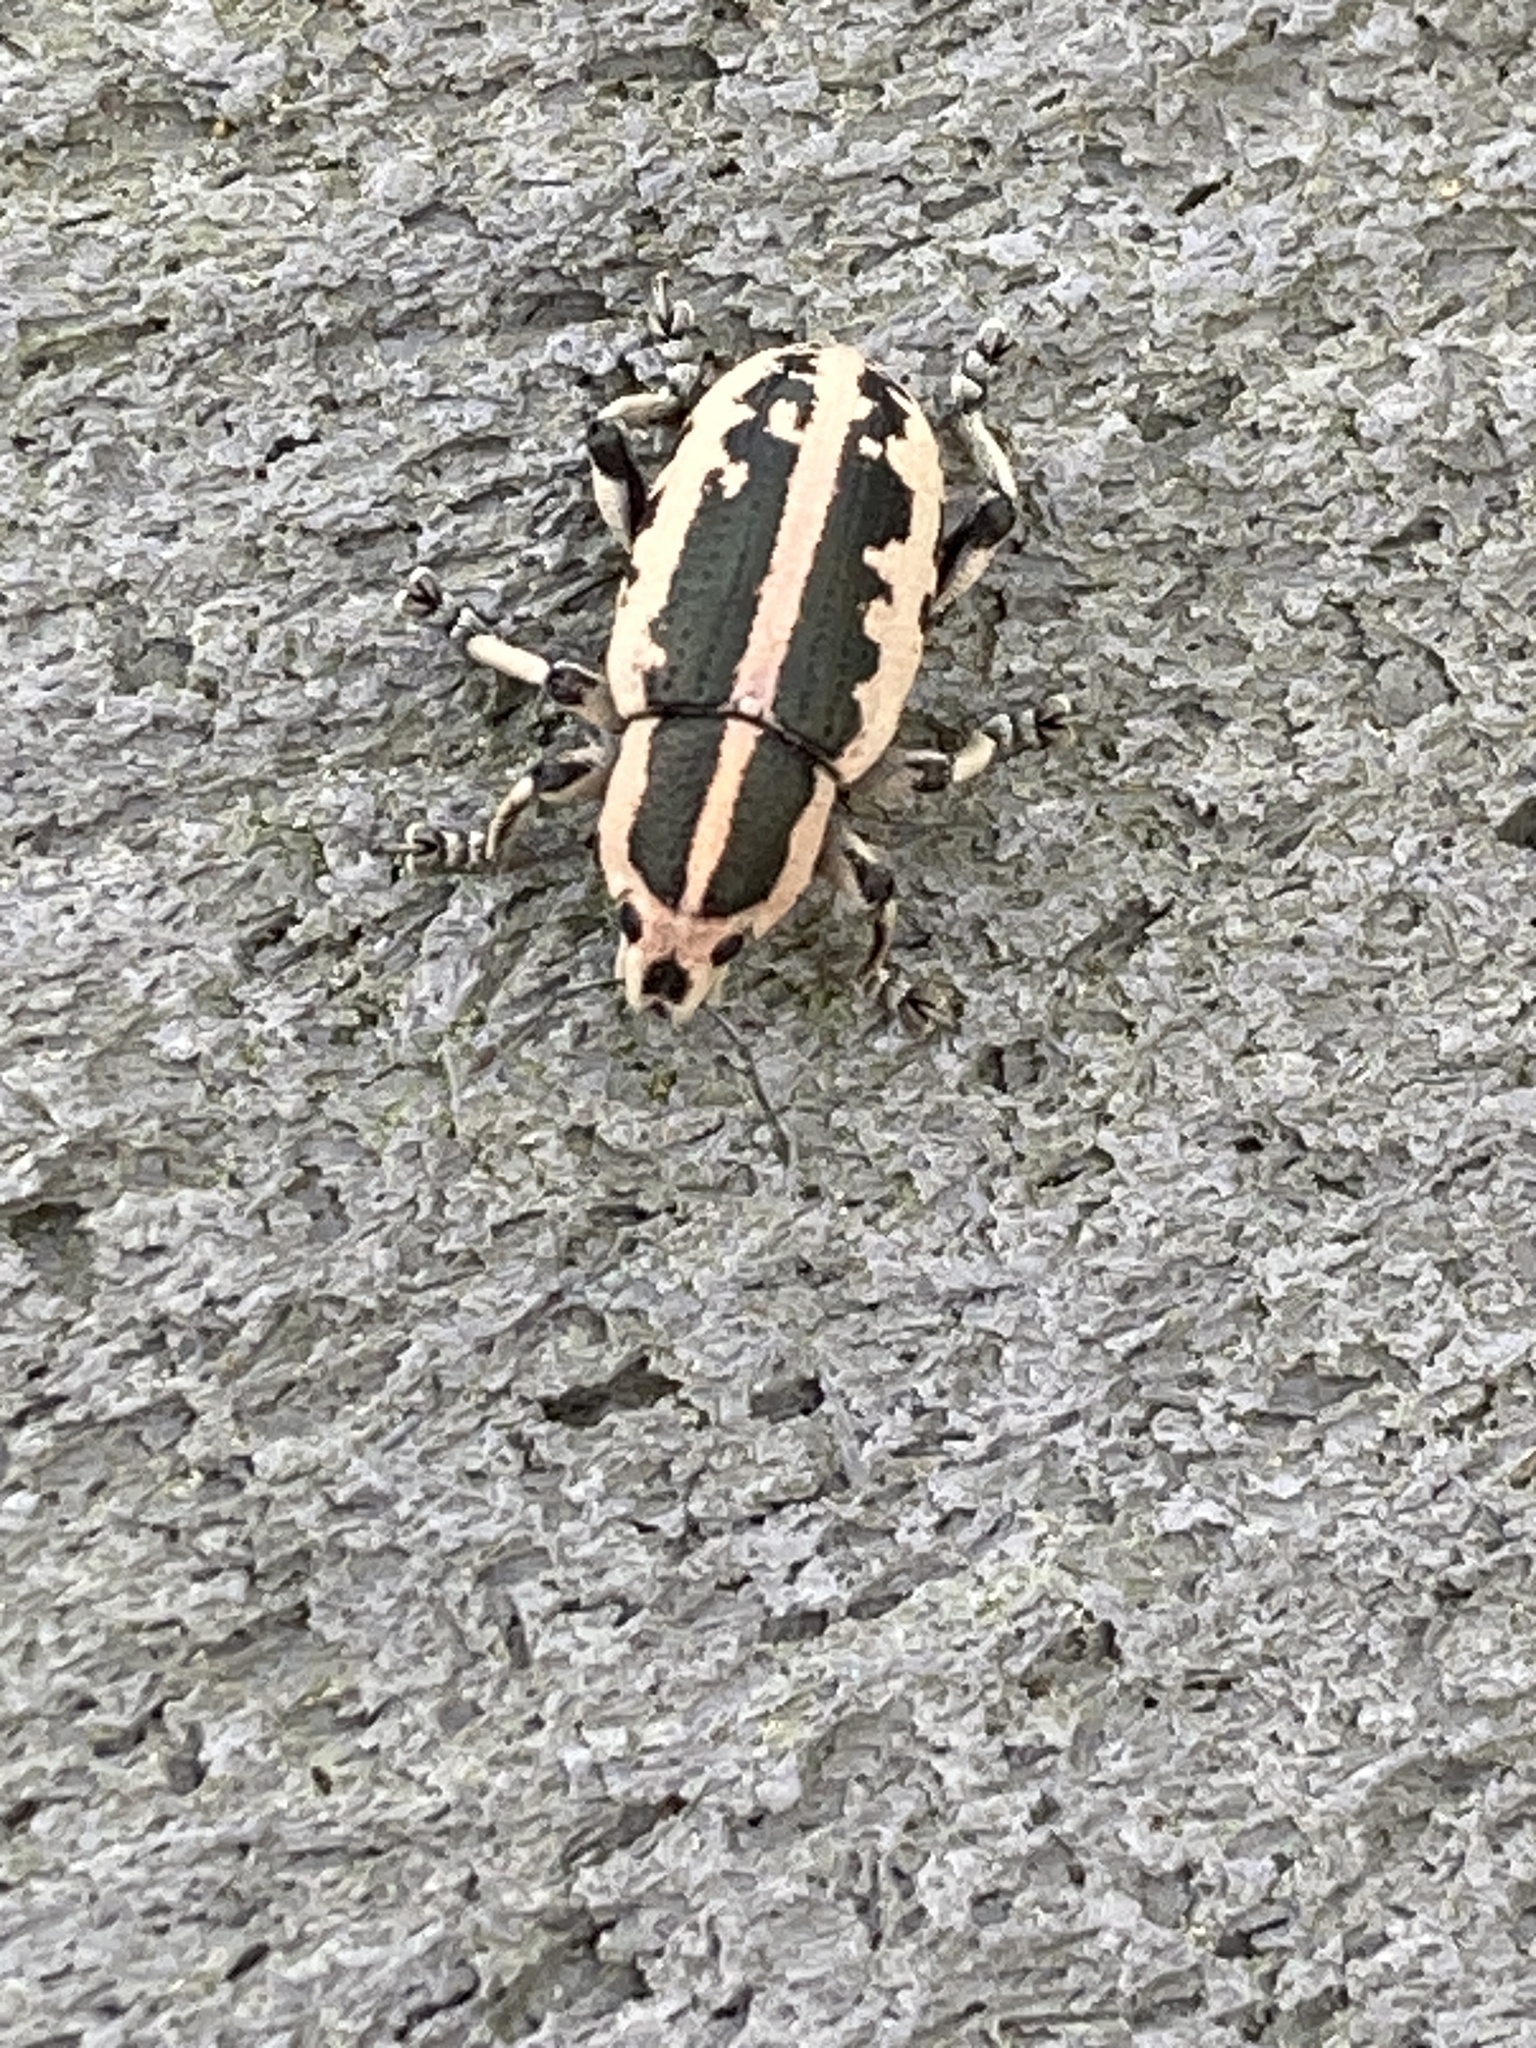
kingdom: Animalia
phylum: Arthropoda
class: Insecta
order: Coleoptera
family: Curculionidae
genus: Eudiagogus
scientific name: Eudiagogus rosenschoeldi
